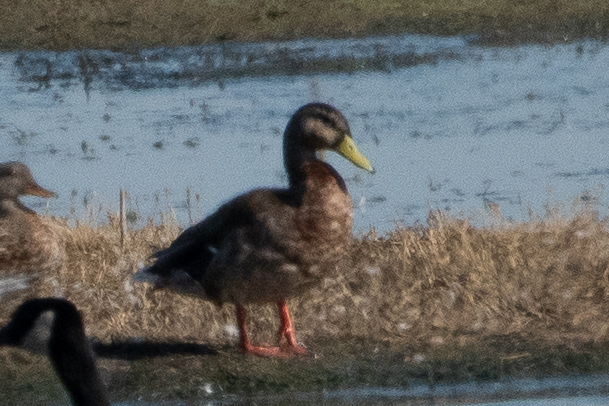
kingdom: Animalia
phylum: Chordata
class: Aves
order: Anseriformes
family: Anatidae
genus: Anas
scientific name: Anas platyrhynchos
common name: Mallard
